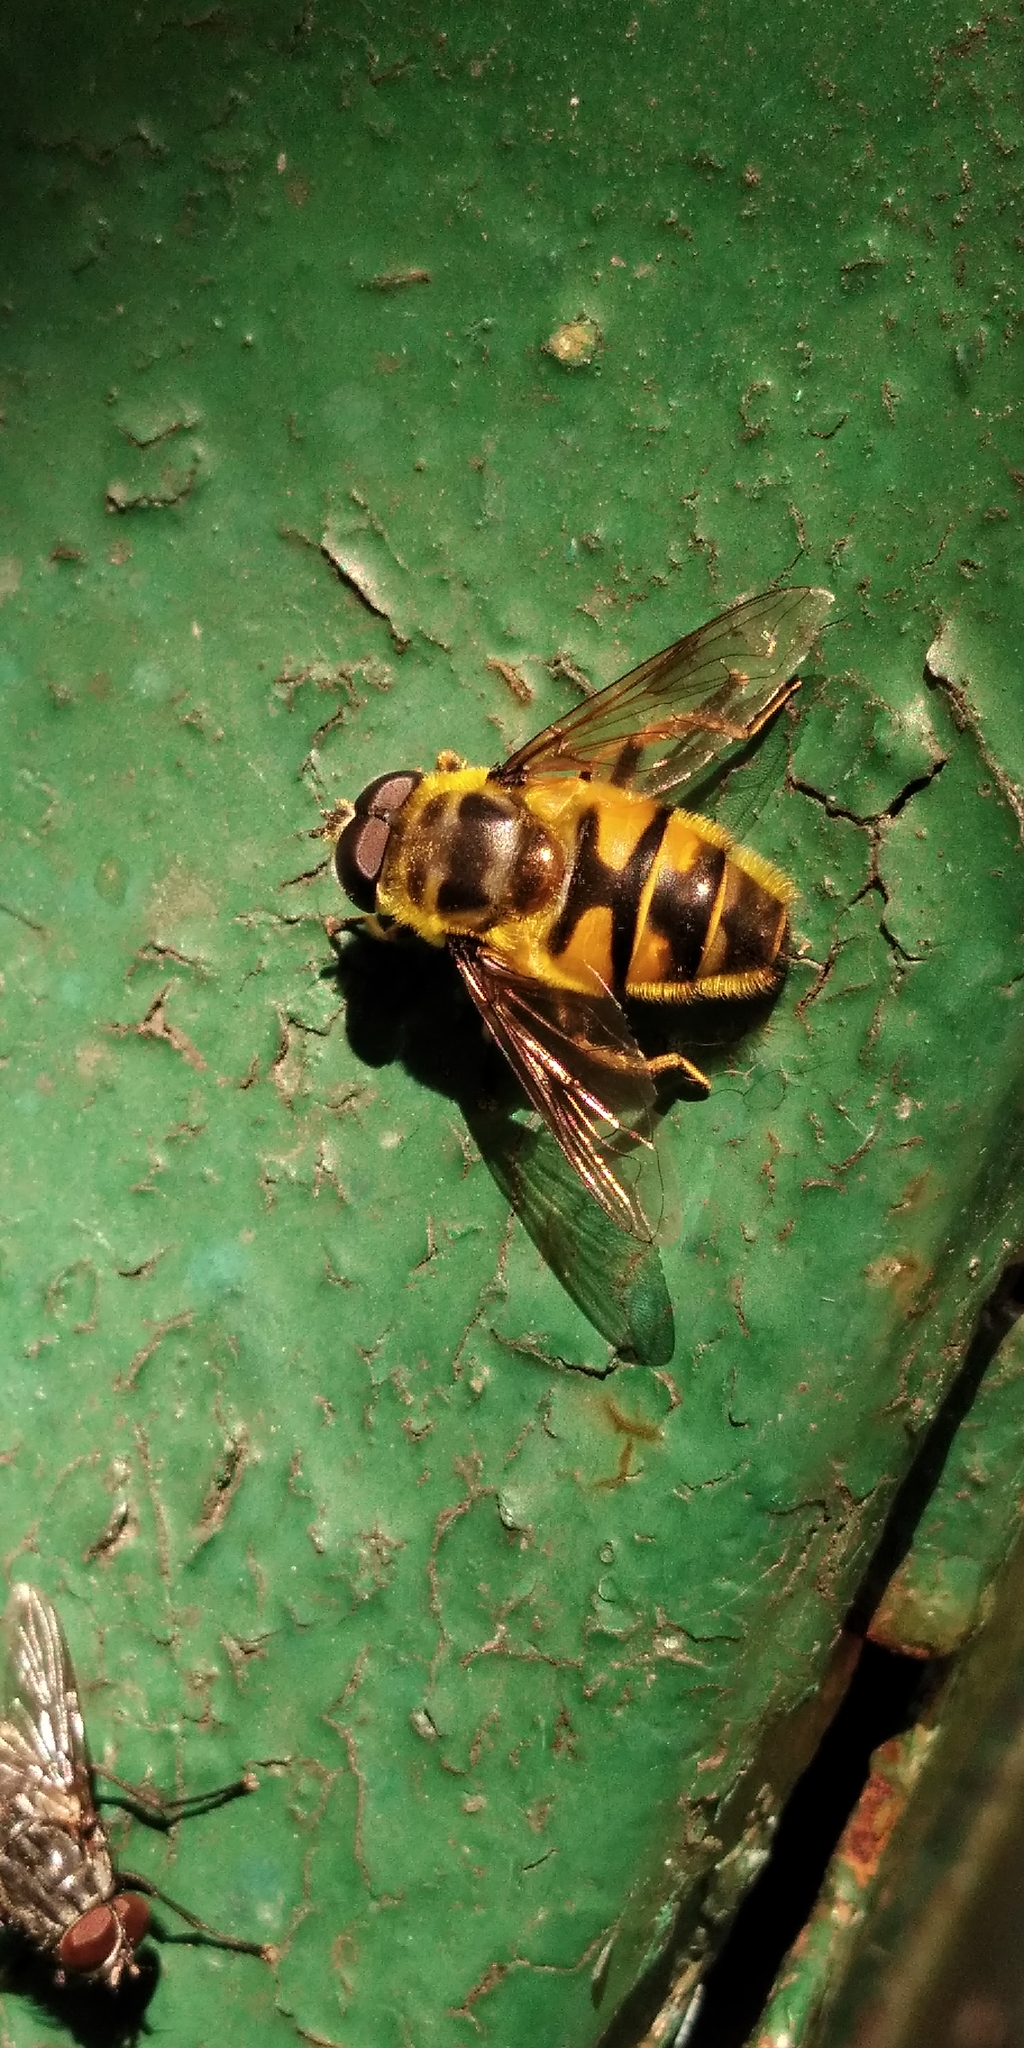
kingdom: Animalia
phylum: Arthropoda
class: Insecta
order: Diptera
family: Syrphidae
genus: Myathropa
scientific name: Myathropa florea
